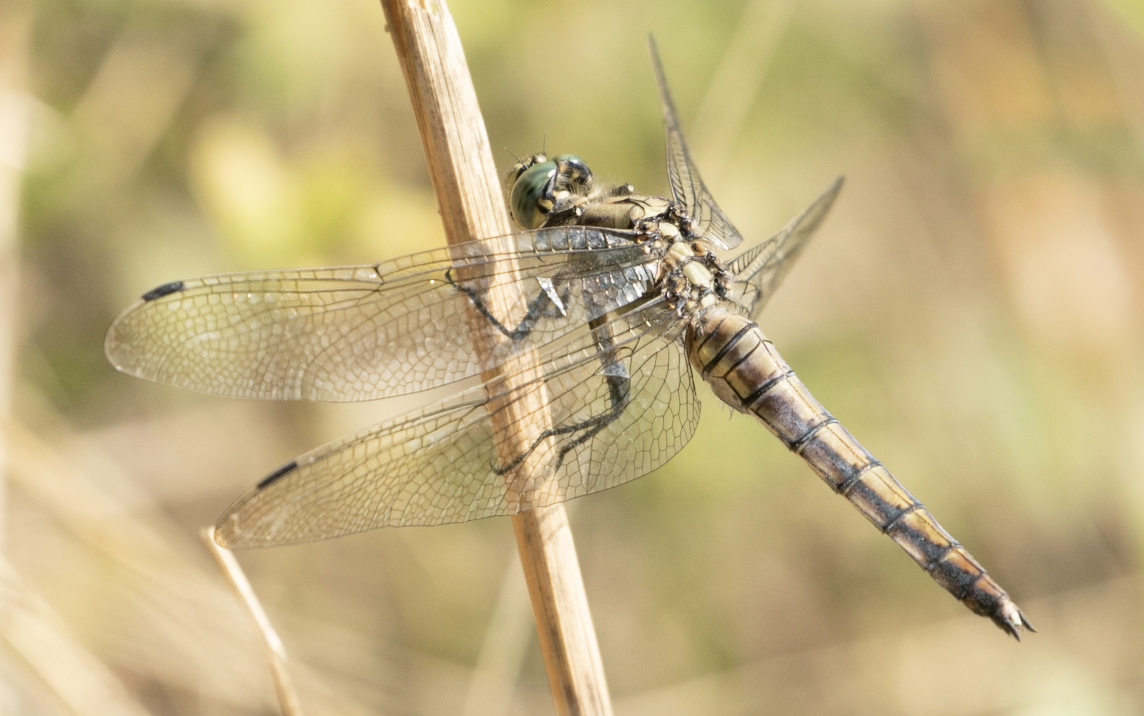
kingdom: Animalia
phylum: Arthropoda
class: Insecta
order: Odonata
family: Libellulidae
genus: Orthetrum
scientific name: Orthetrum cancellatum
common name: Black-tailed skimmer
